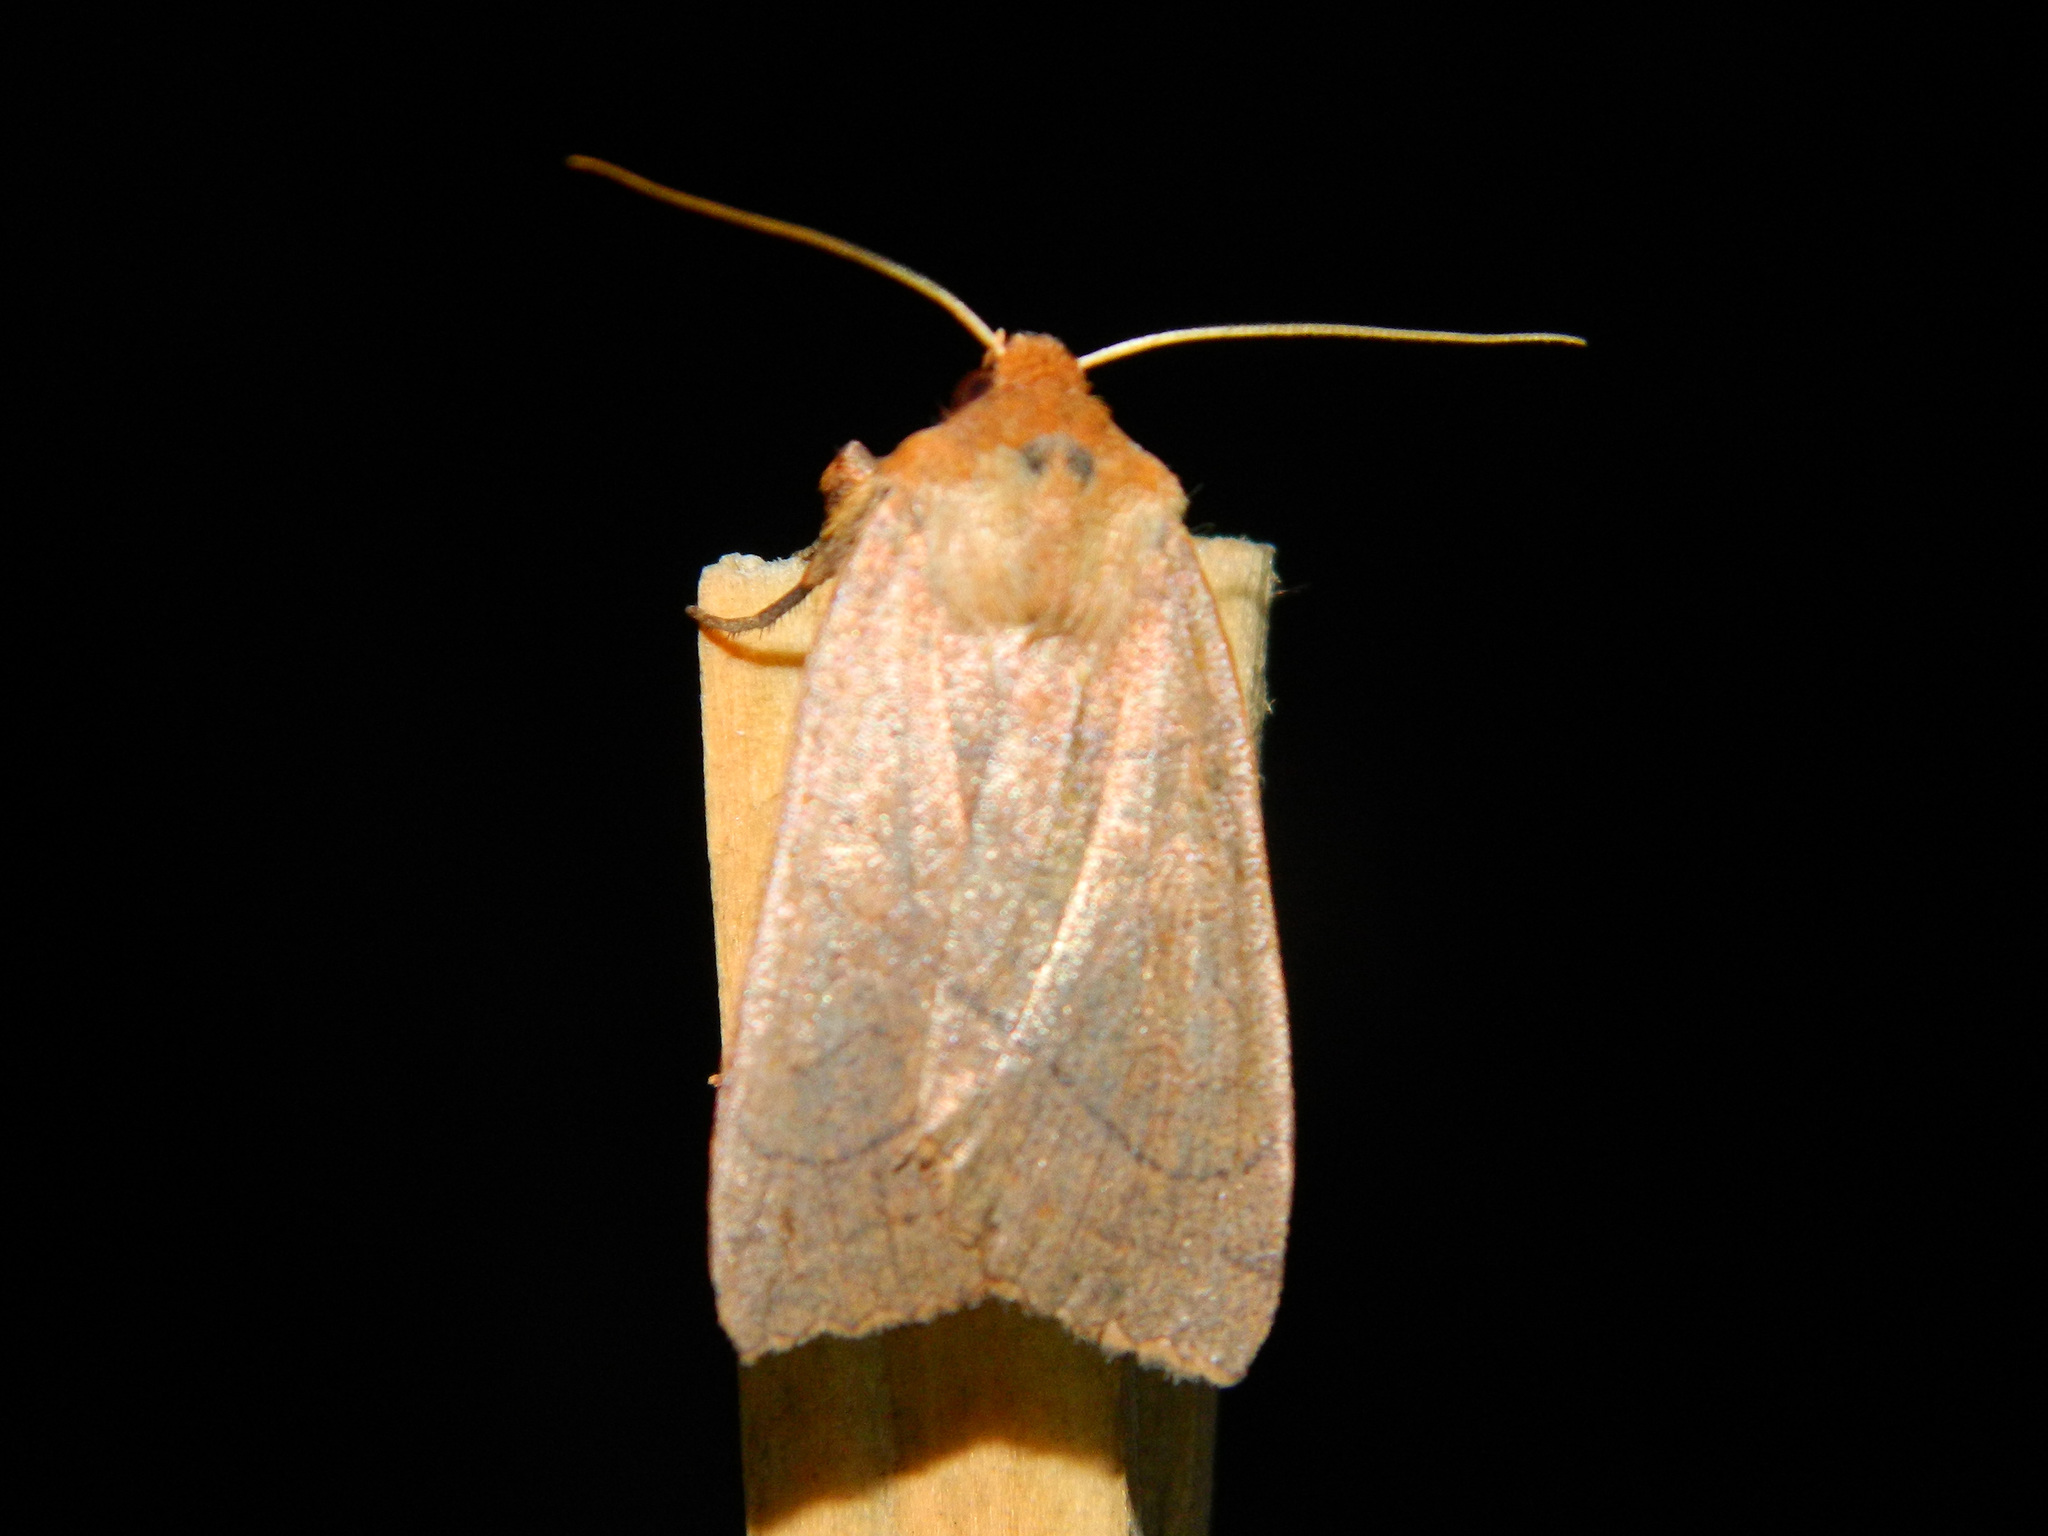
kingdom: Animalia
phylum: Arthropoda
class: Insecta
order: Lepidoptera
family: Noctuidae
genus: Metaxaglaea
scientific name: Metaxaglaea inulta
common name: Unsated sallow
